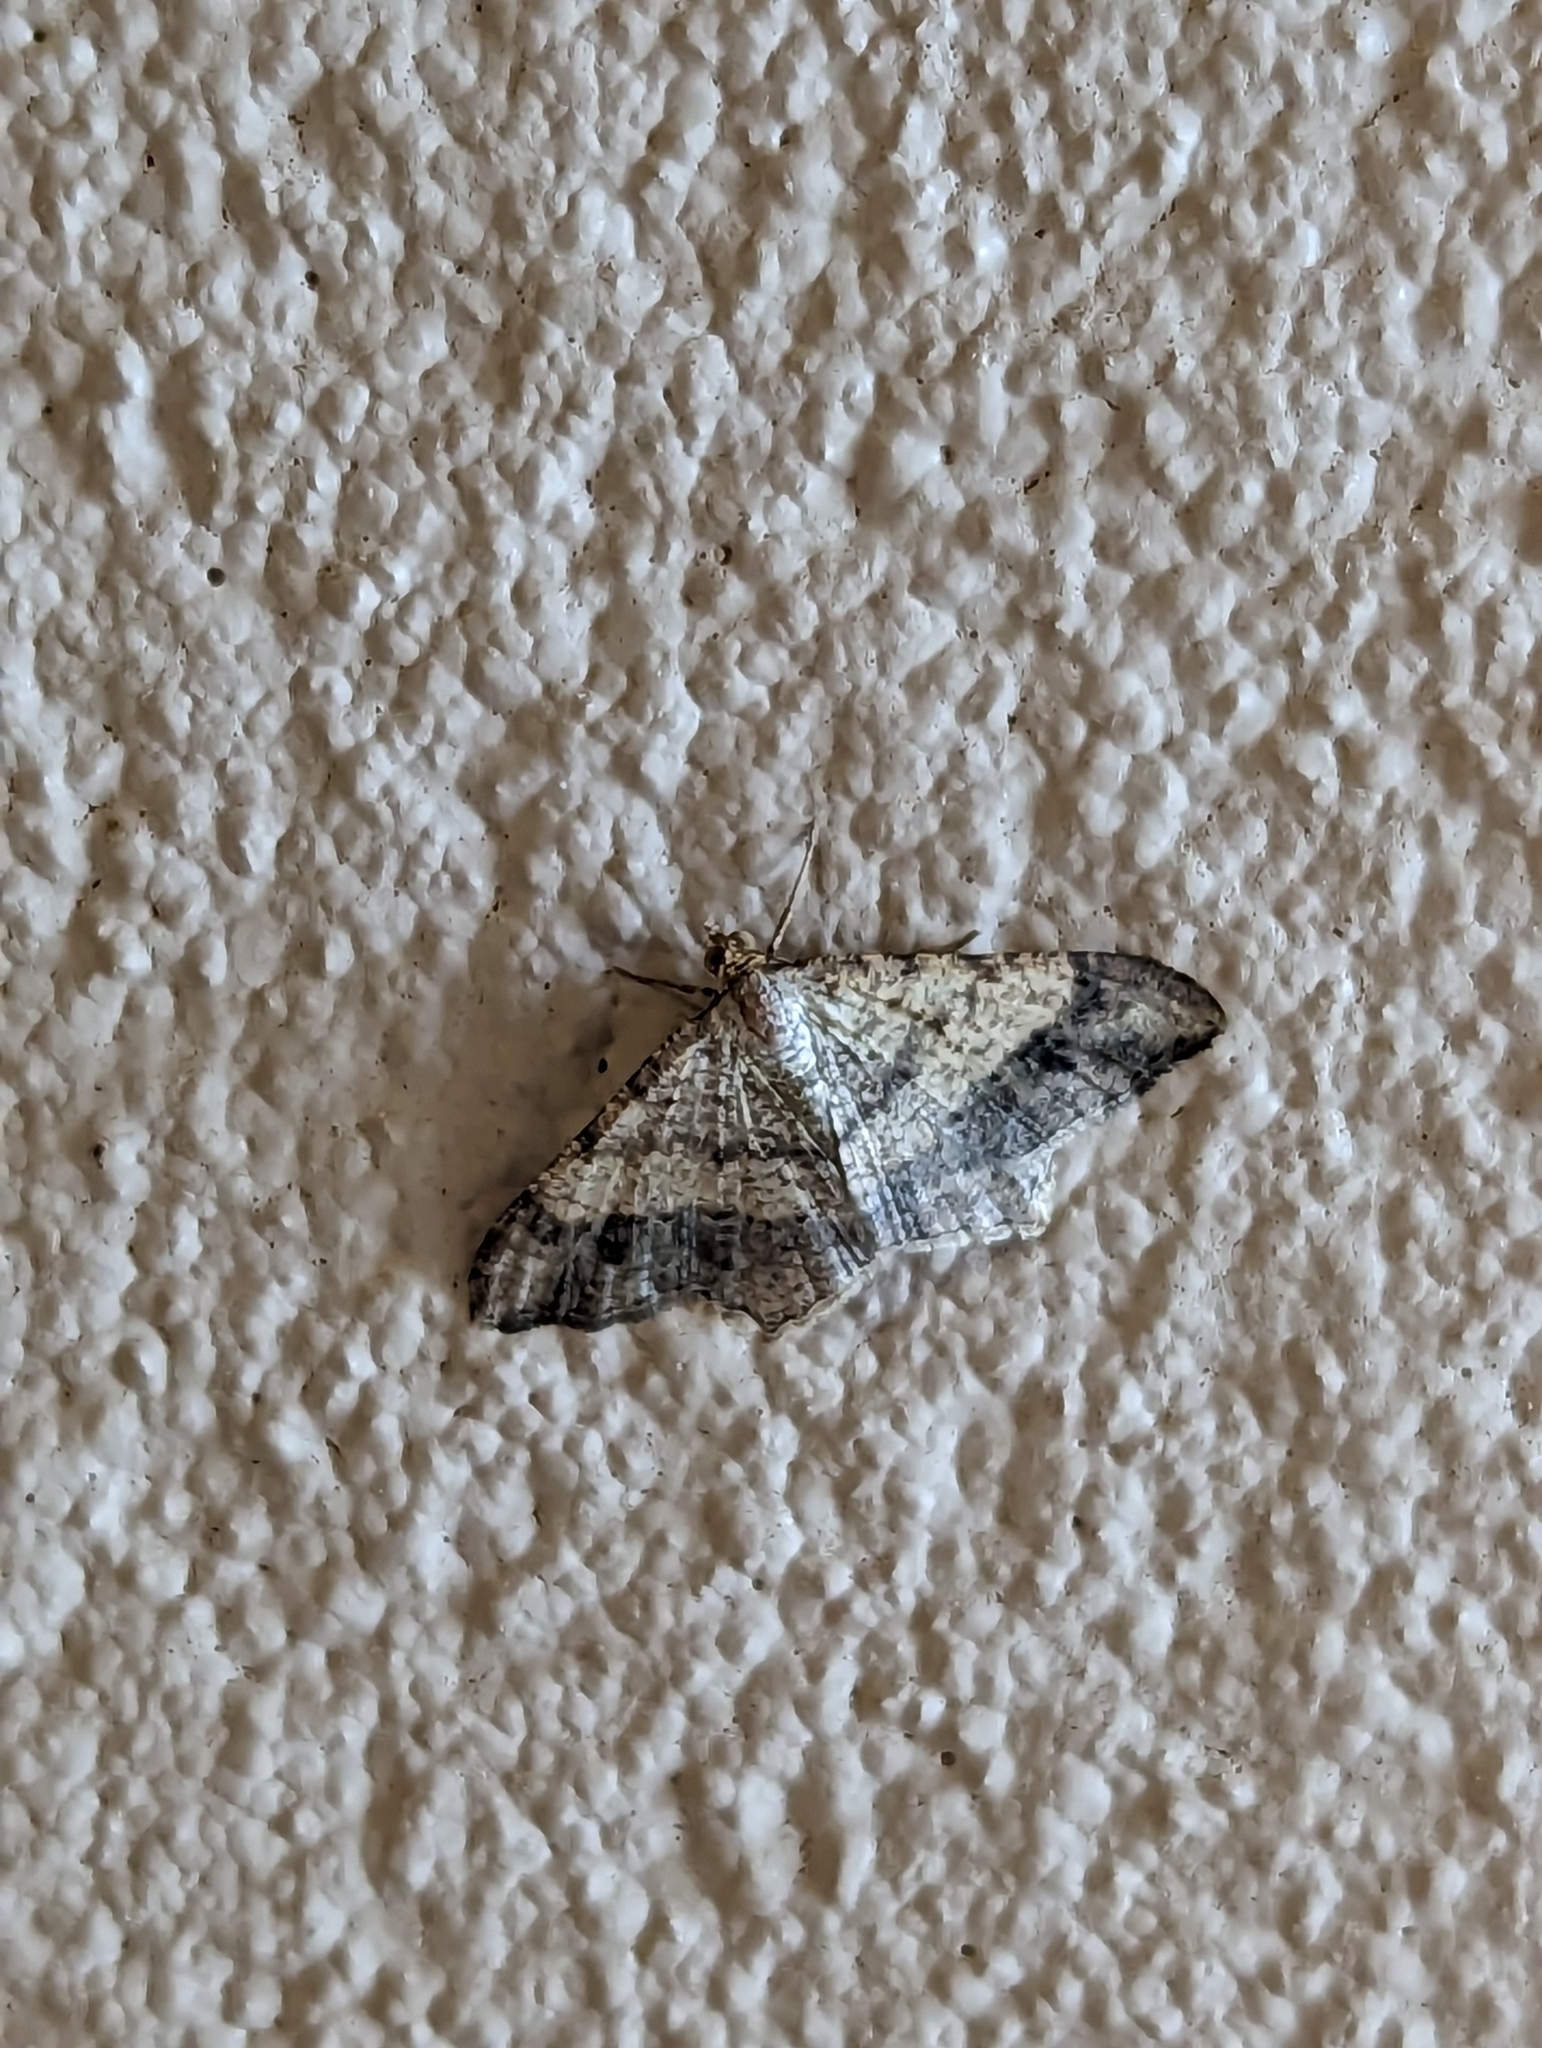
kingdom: Animalia
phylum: Arthropoda
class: Insecta
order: Lepidoptera
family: Geometridae
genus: Macaria
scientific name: Macaria abydata
